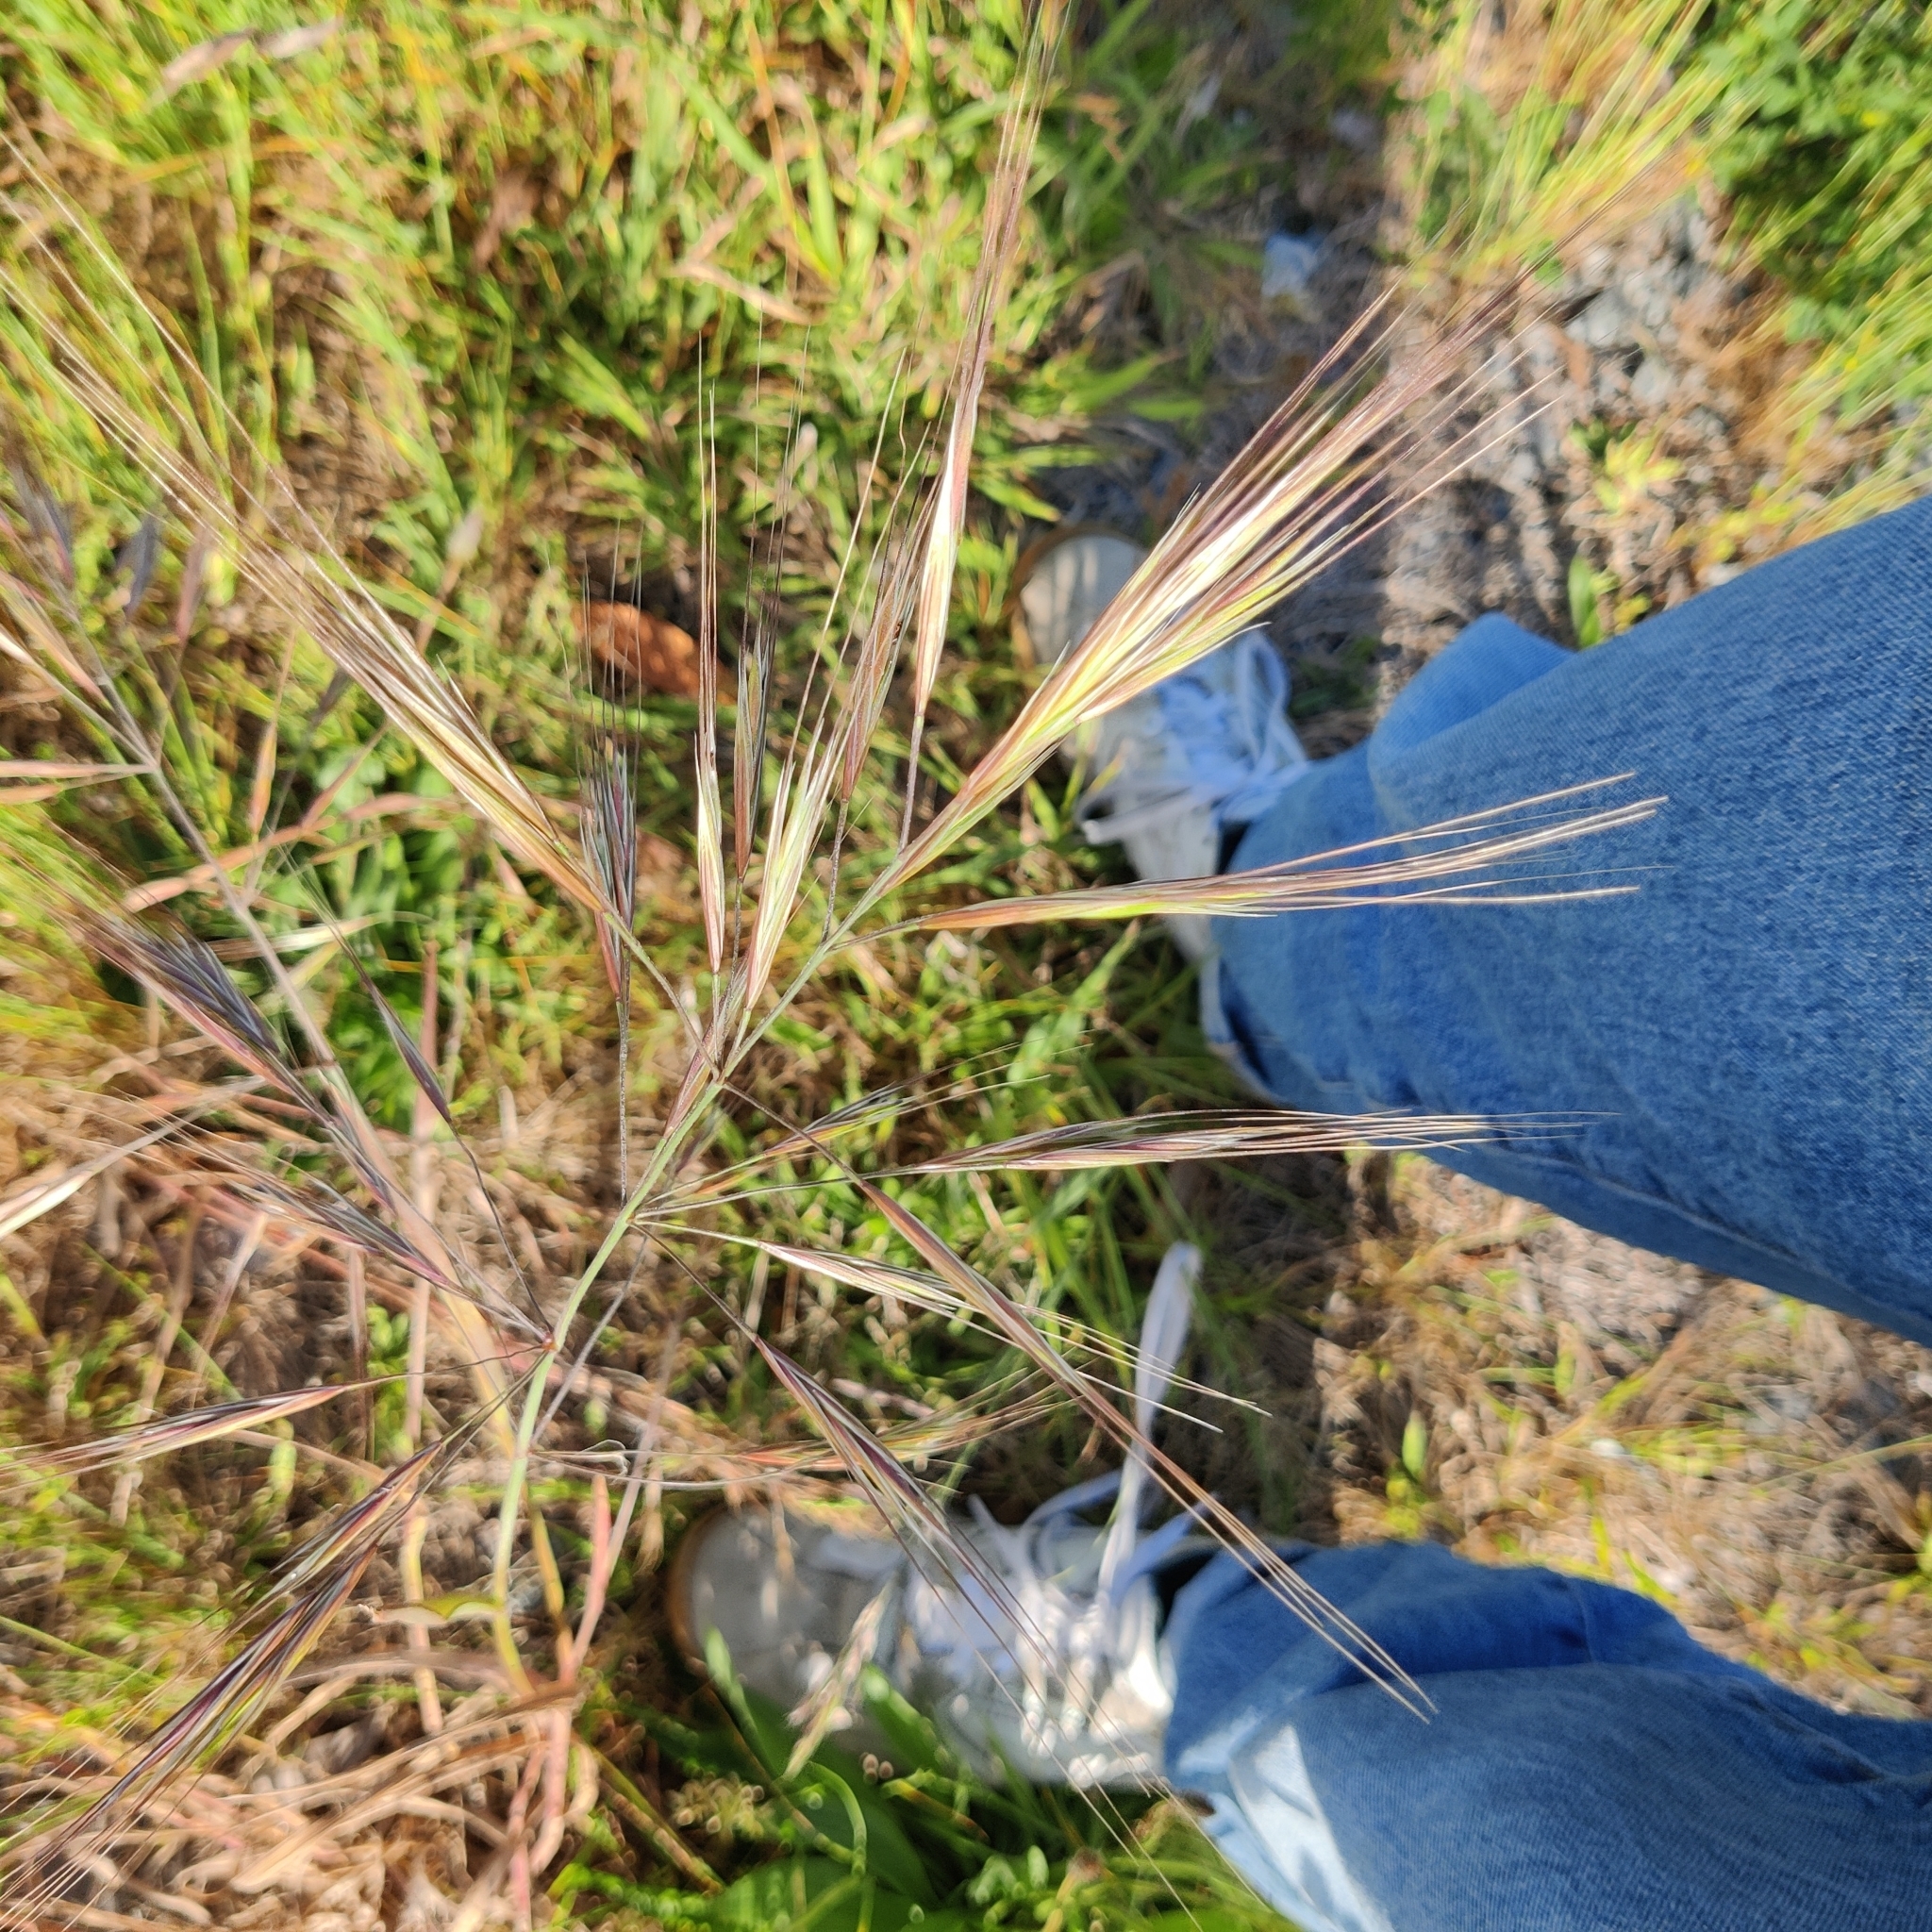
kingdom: Plantae
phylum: Tracheophyta
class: Liliopsida
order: Poales
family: Poaceae
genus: Bromus
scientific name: Bromus diandrus
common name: Ripgut brome
